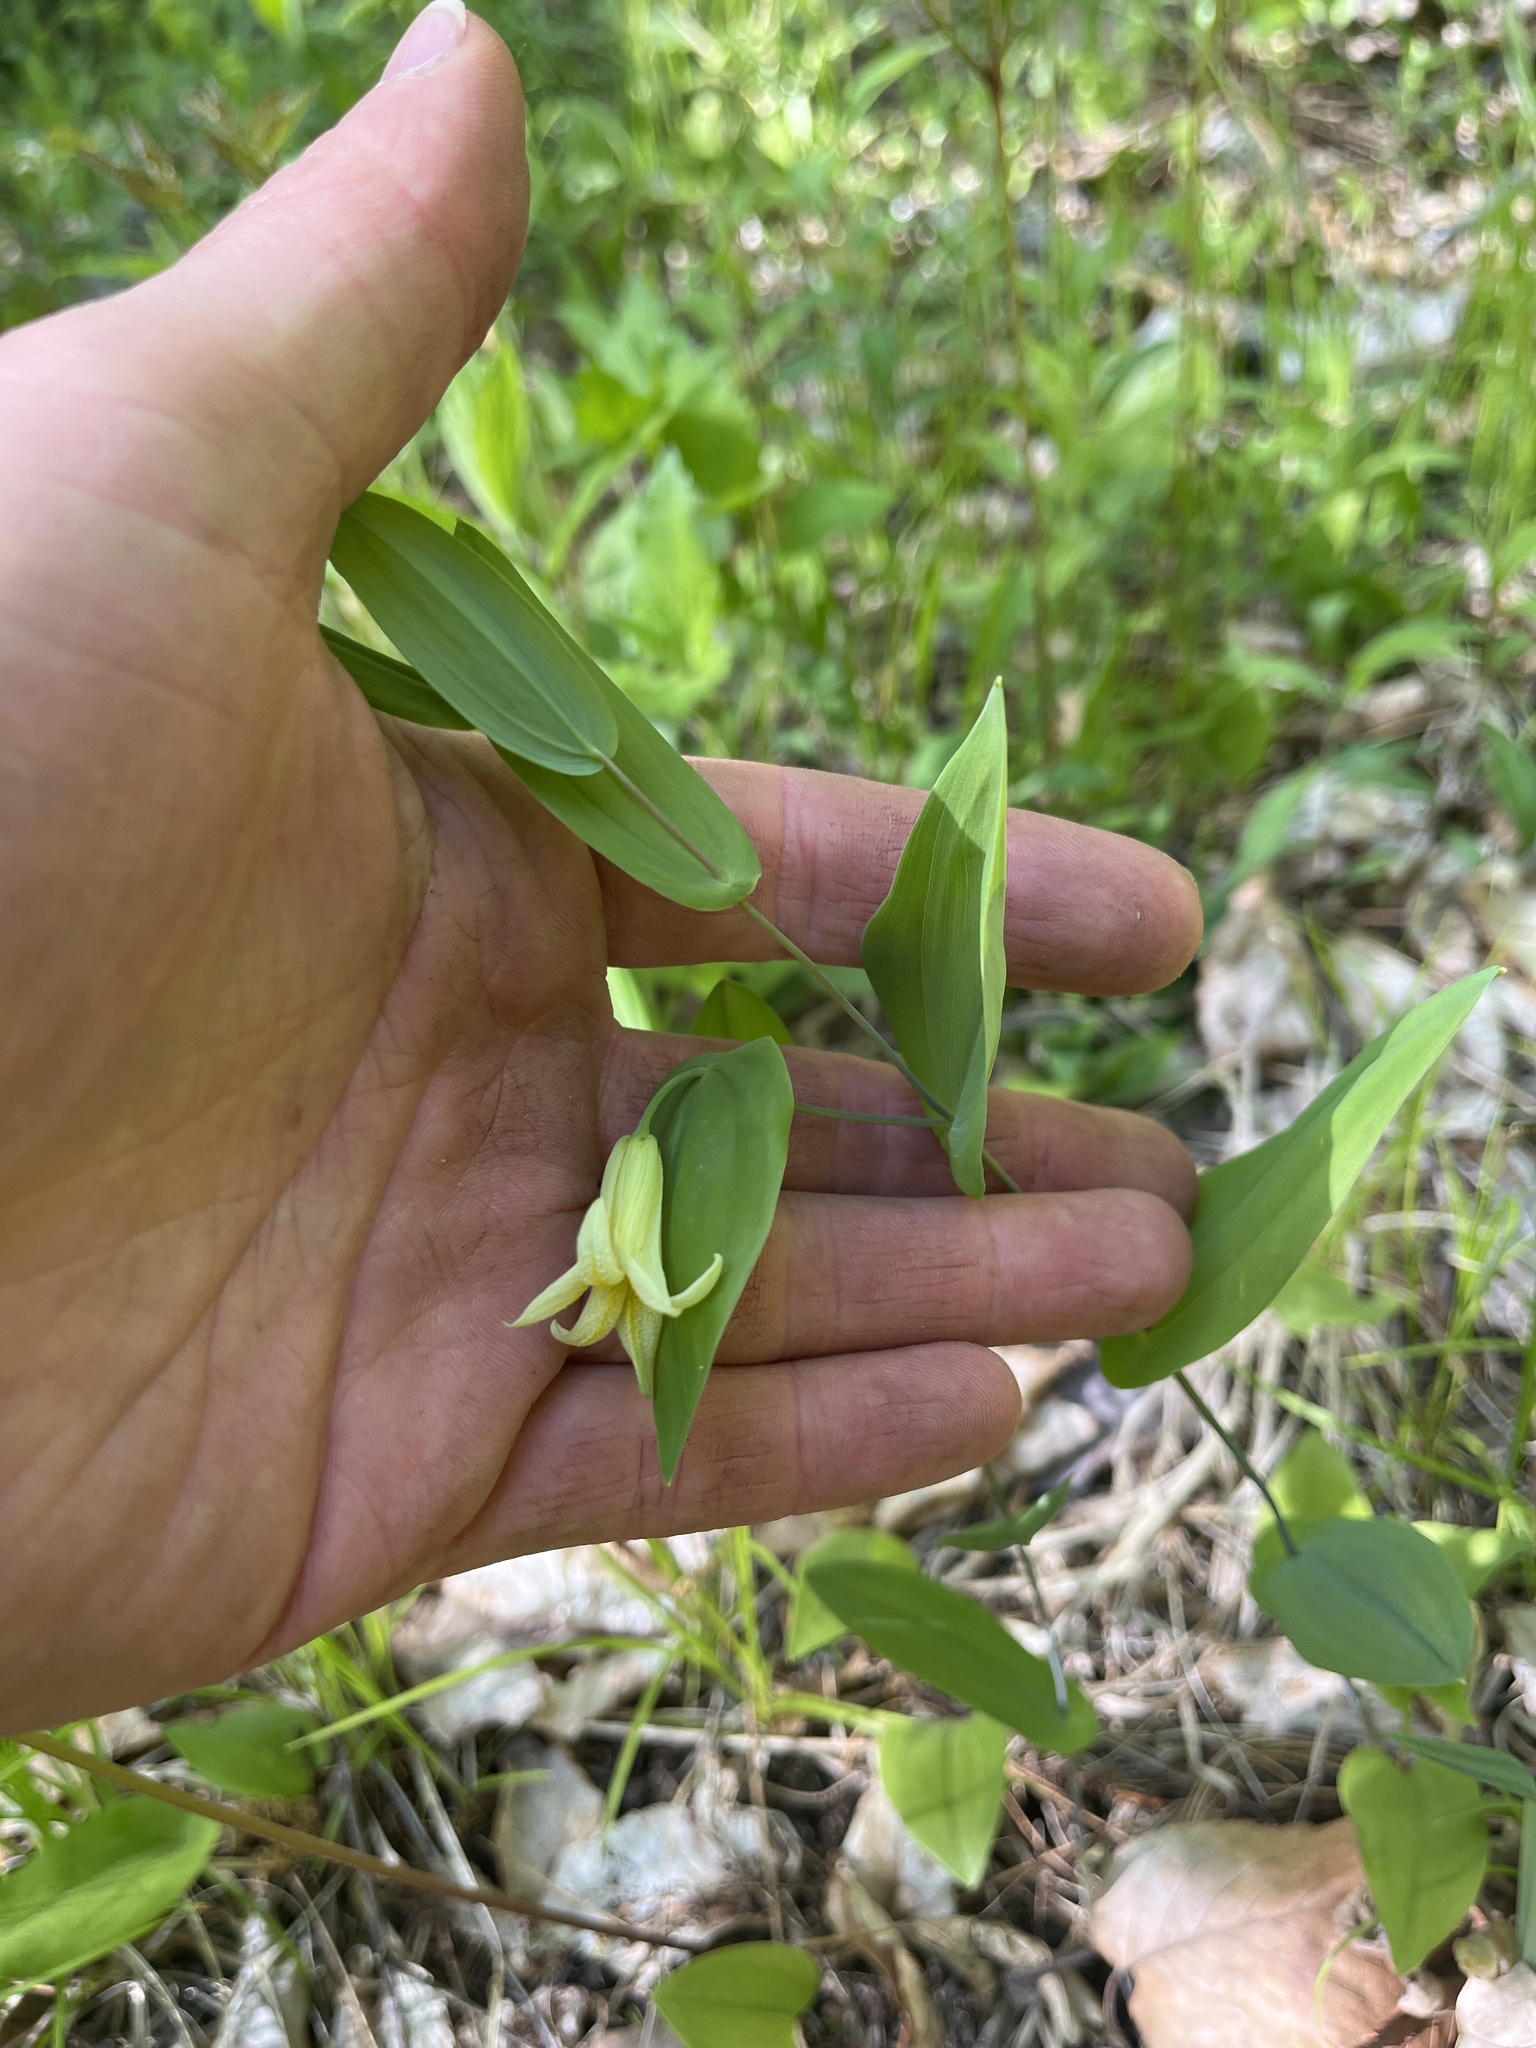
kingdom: Plantae
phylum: Tracheophyta
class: Liliopsida
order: Liliales
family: Colchicaceae
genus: Uvularia
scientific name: Uvularia perfoliata
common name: Perfoliate bellwort
